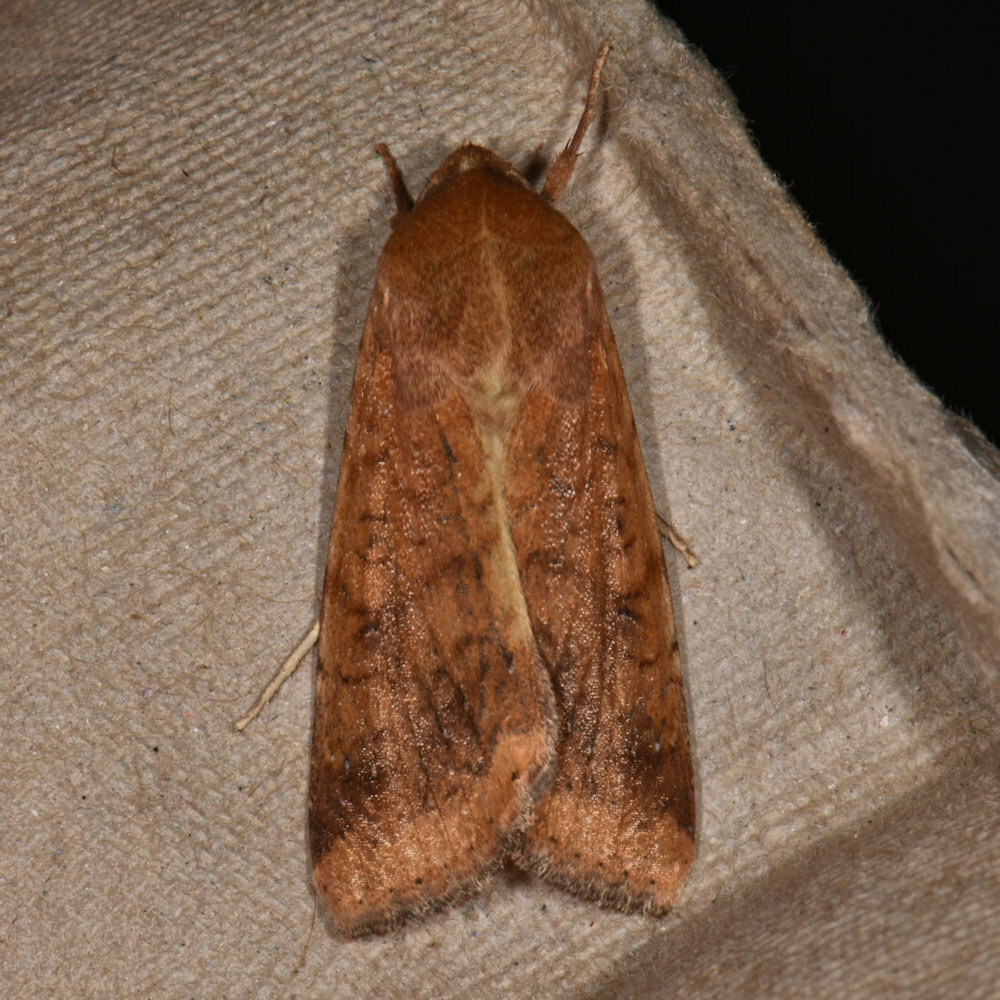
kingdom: Animalia
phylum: Arthropoda
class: Insecta
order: Lepidoptera
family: Noctuidae
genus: Helicoverpa
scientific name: Helicoverpa zea
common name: Bollworm
